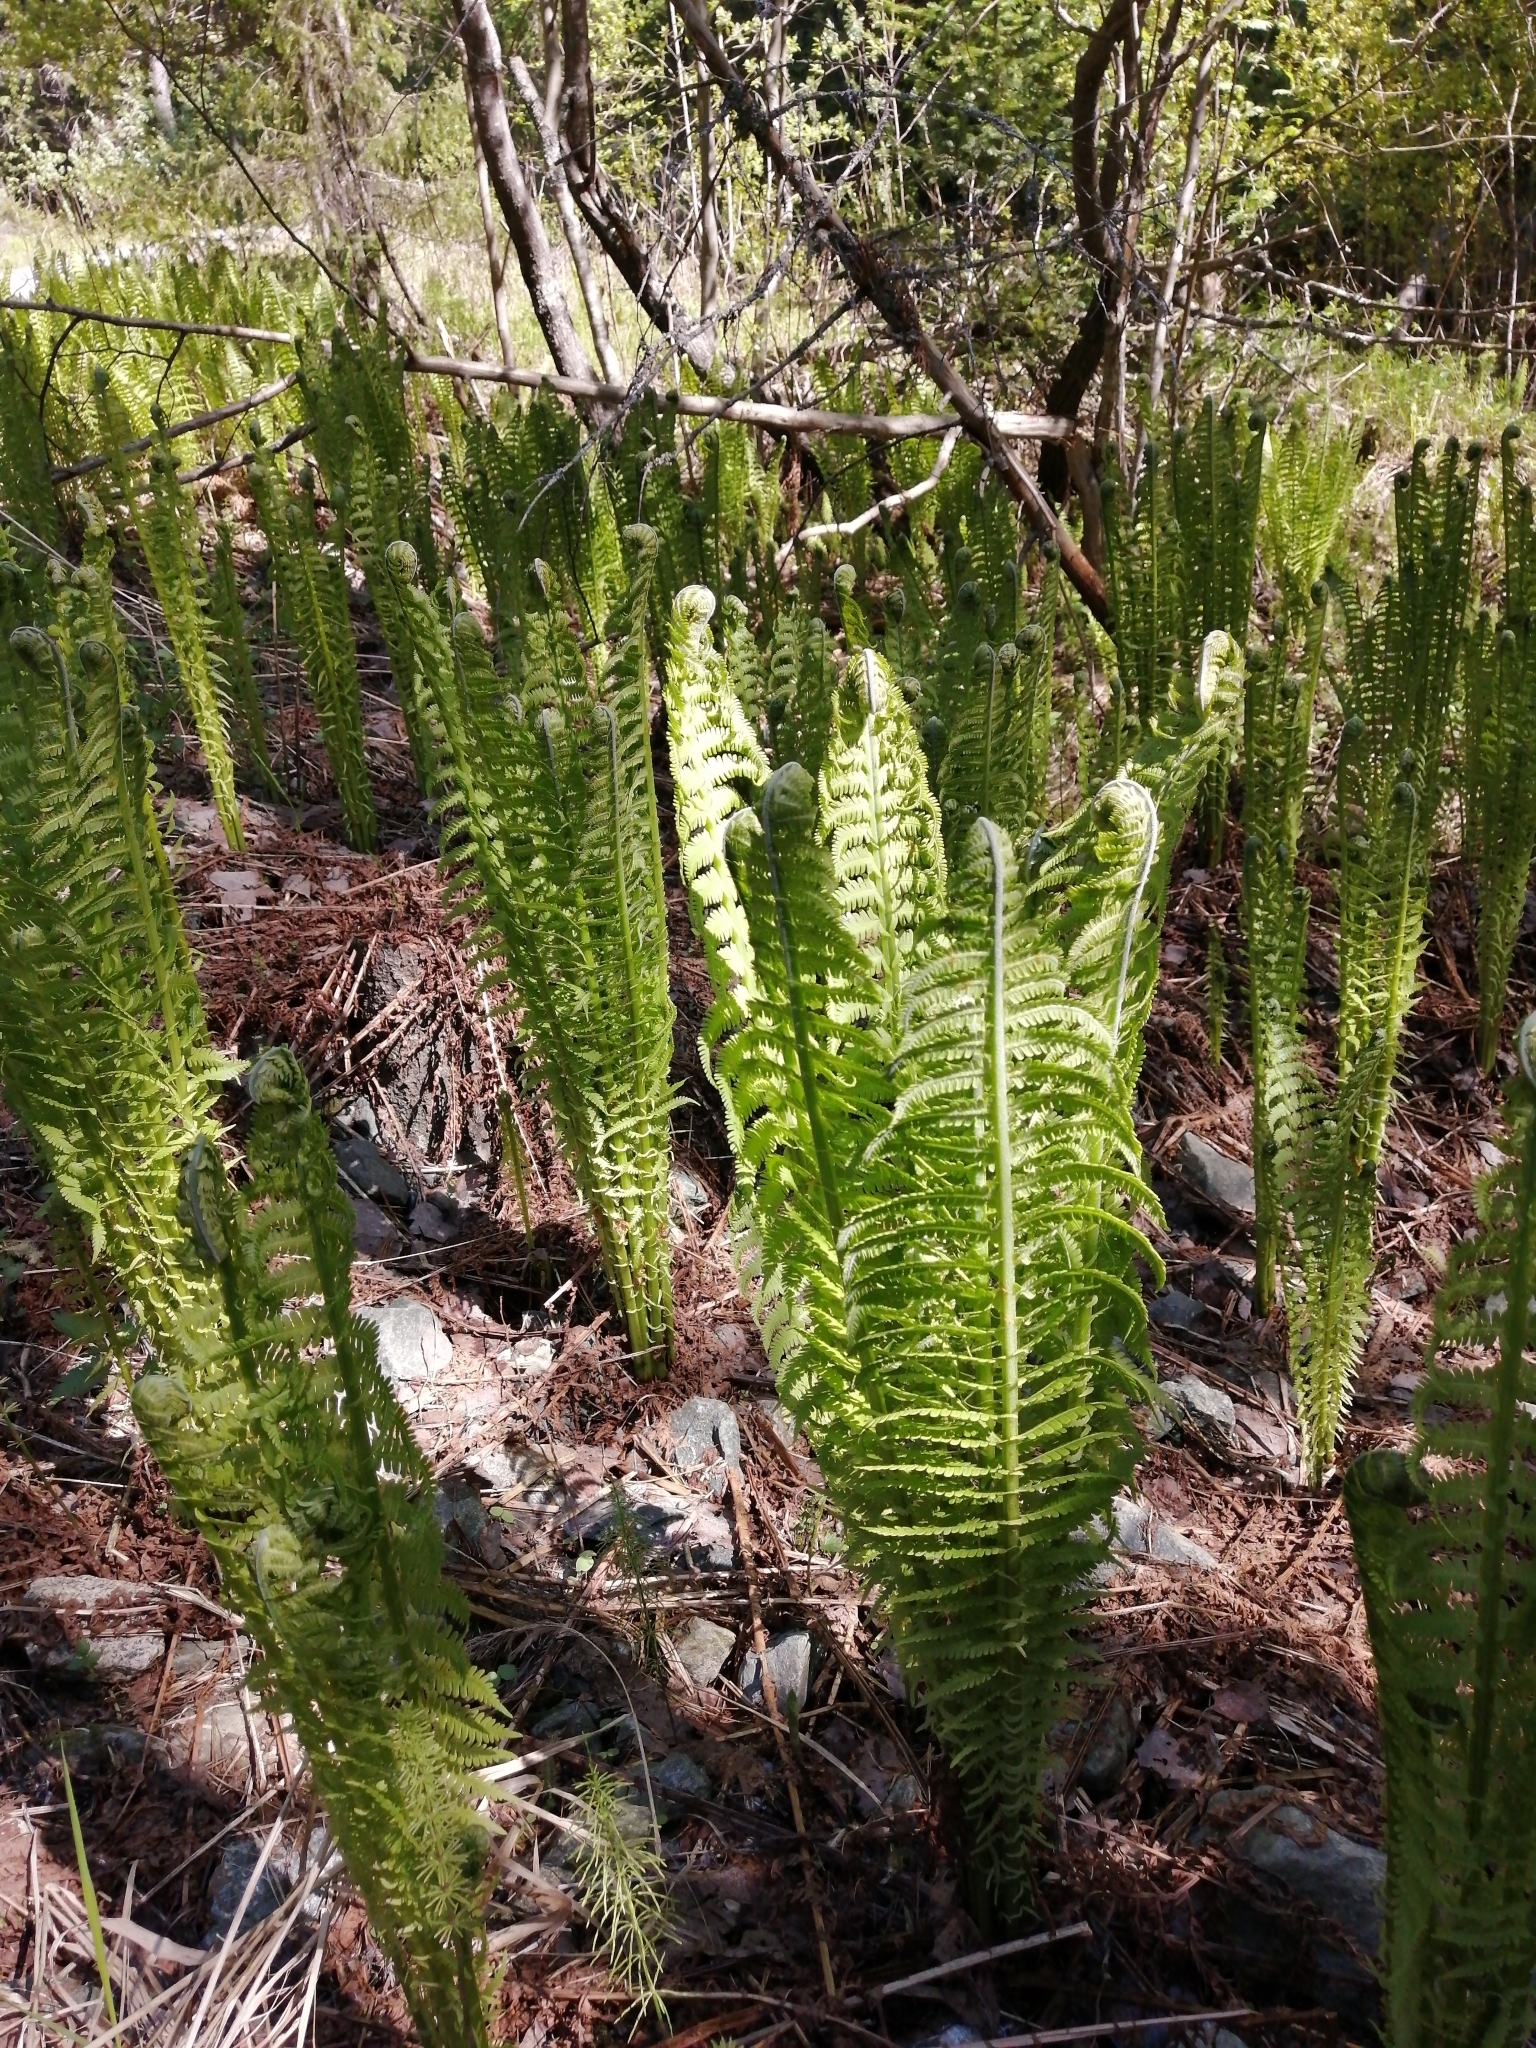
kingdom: Plantae
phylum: Tracheophyta
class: Polypodiopsida
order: Polypodiales
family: Onocleaceae
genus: Matteuccia
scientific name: Matteuccia struthiopteris
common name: Ostrich fern
